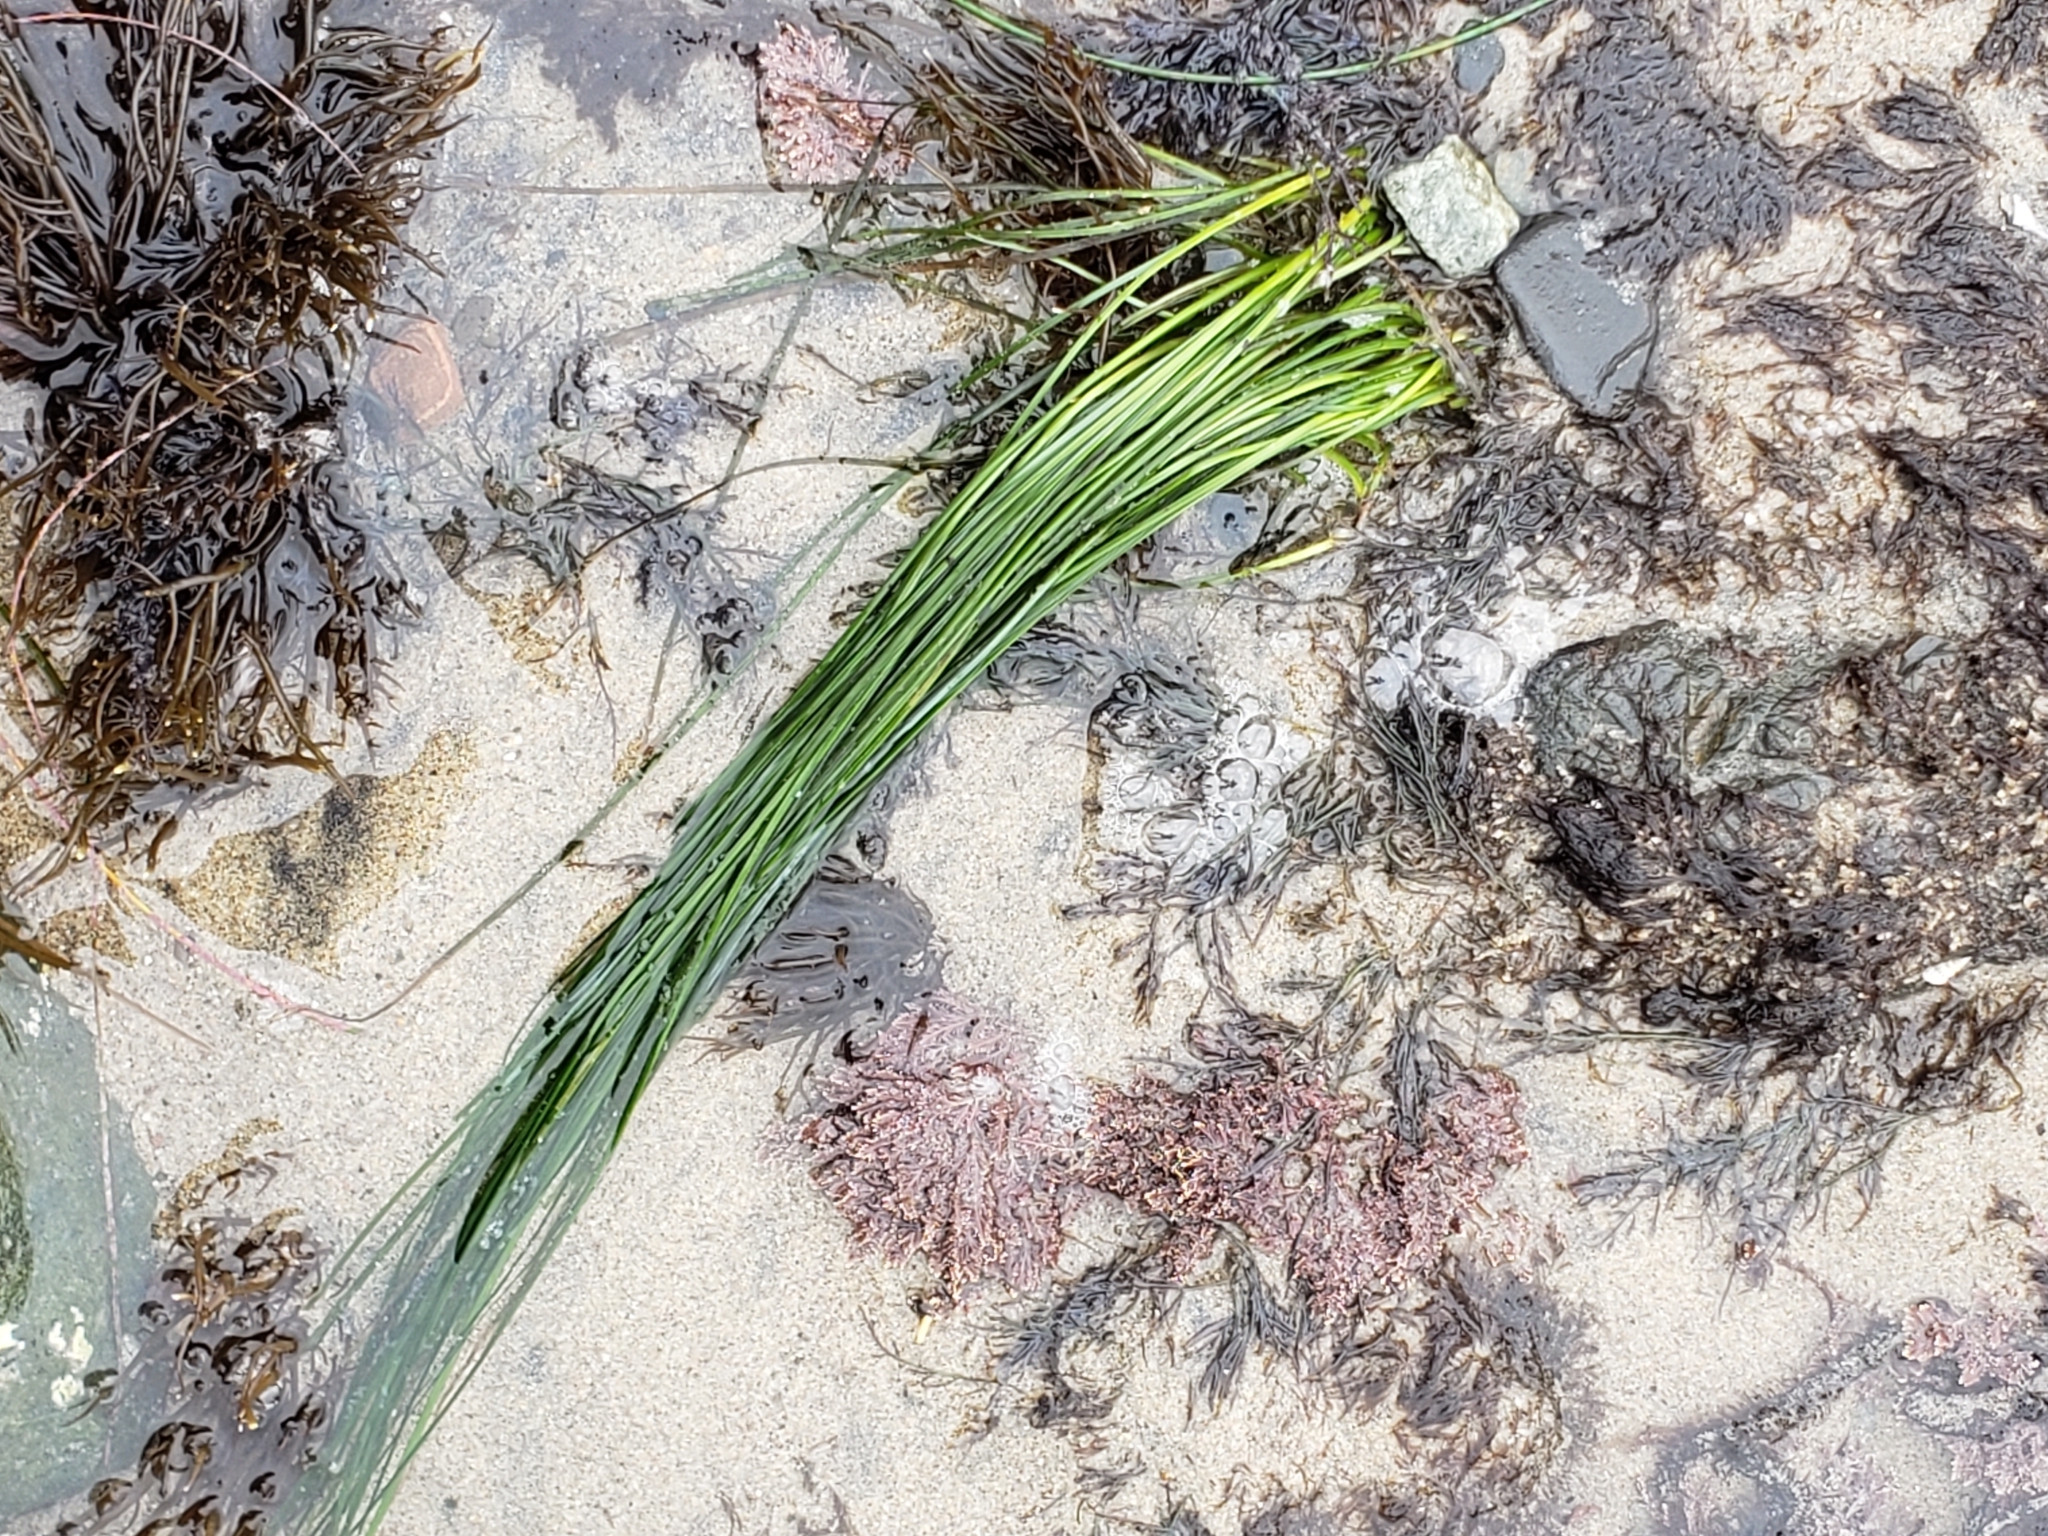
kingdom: Plantae
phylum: Tracheophyta
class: Liliopsida
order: Alismatales
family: Zosteraceae
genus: Phyllospadix
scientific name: Phyllospadix torreyi
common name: Surfgrass
